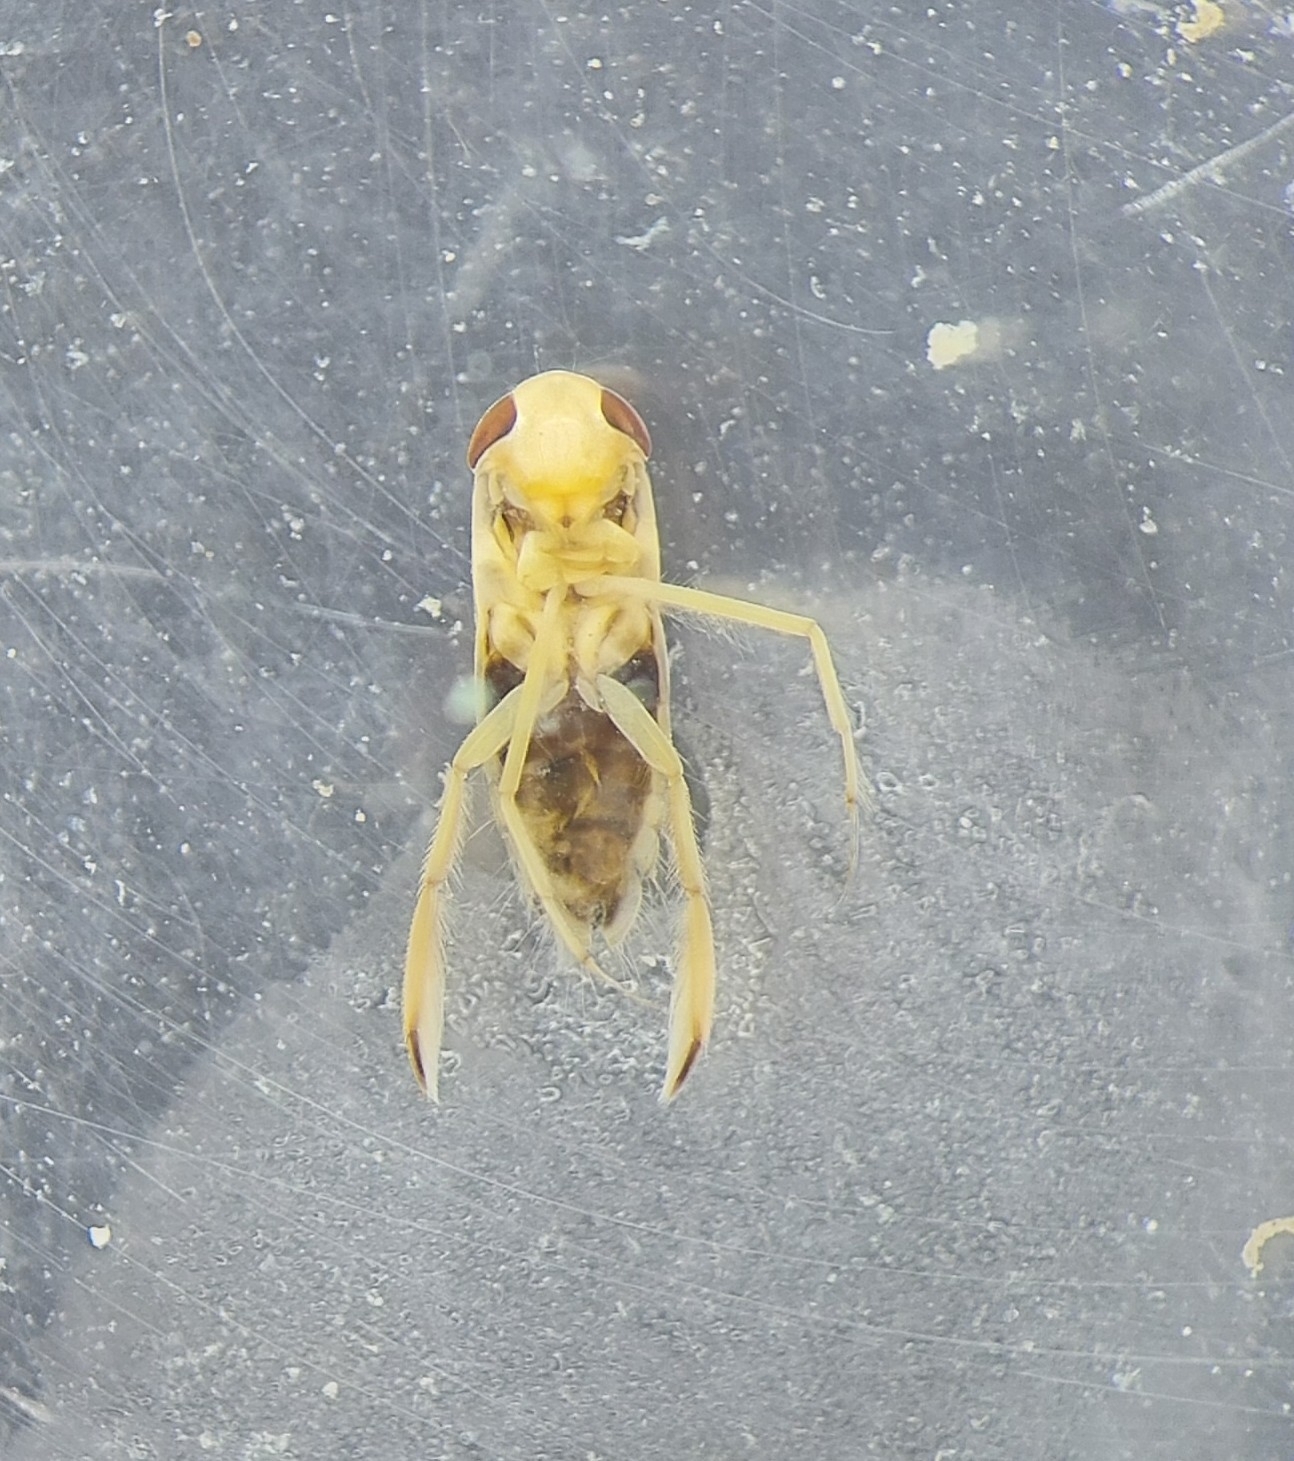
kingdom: Animalia
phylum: Arthropoda
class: Insecta
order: Hemiptera
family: Corixidae
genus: Sigara
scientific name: Sigara lateralis
